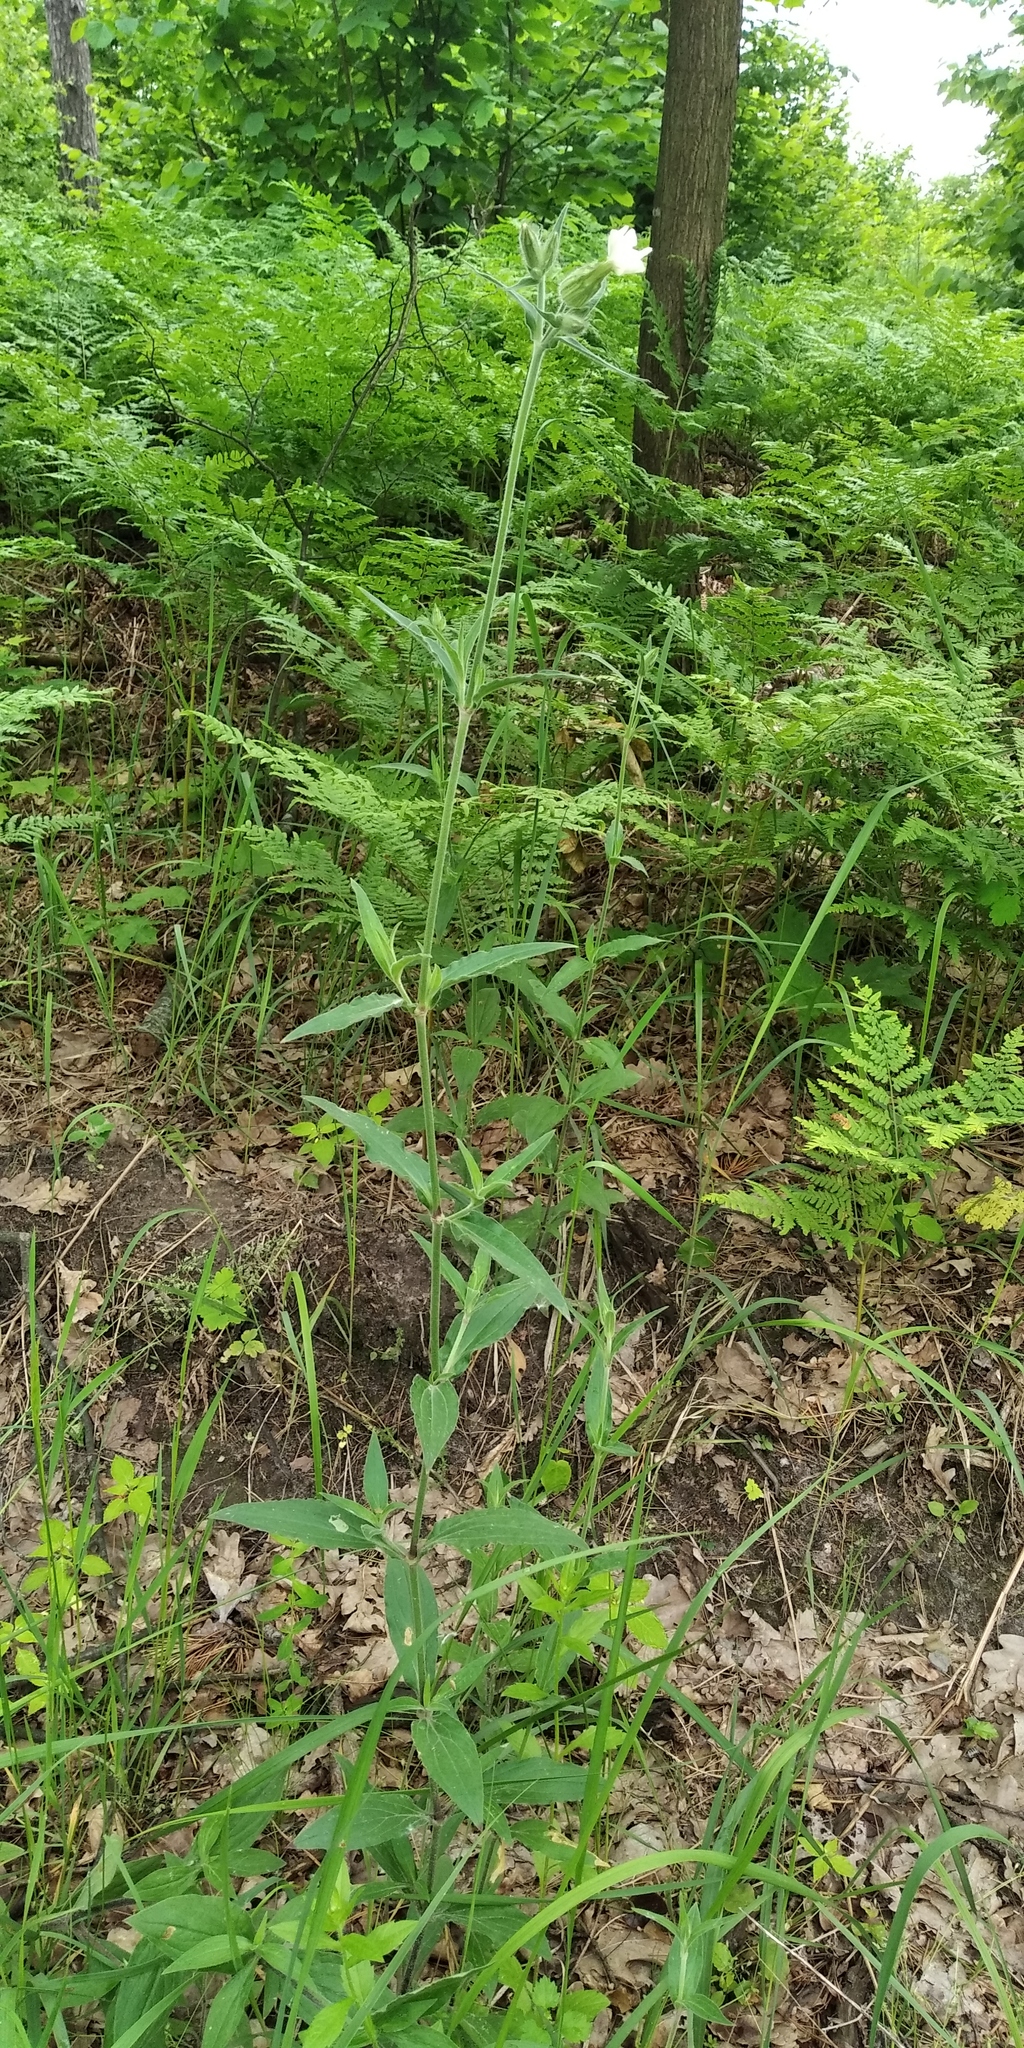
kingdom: Plantae
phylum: Tracheophyta
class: Magnoliopsida
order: Caryophyllales
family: Caryophyllaceae
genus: Silene
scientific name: Silene latifolia
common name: White campion
